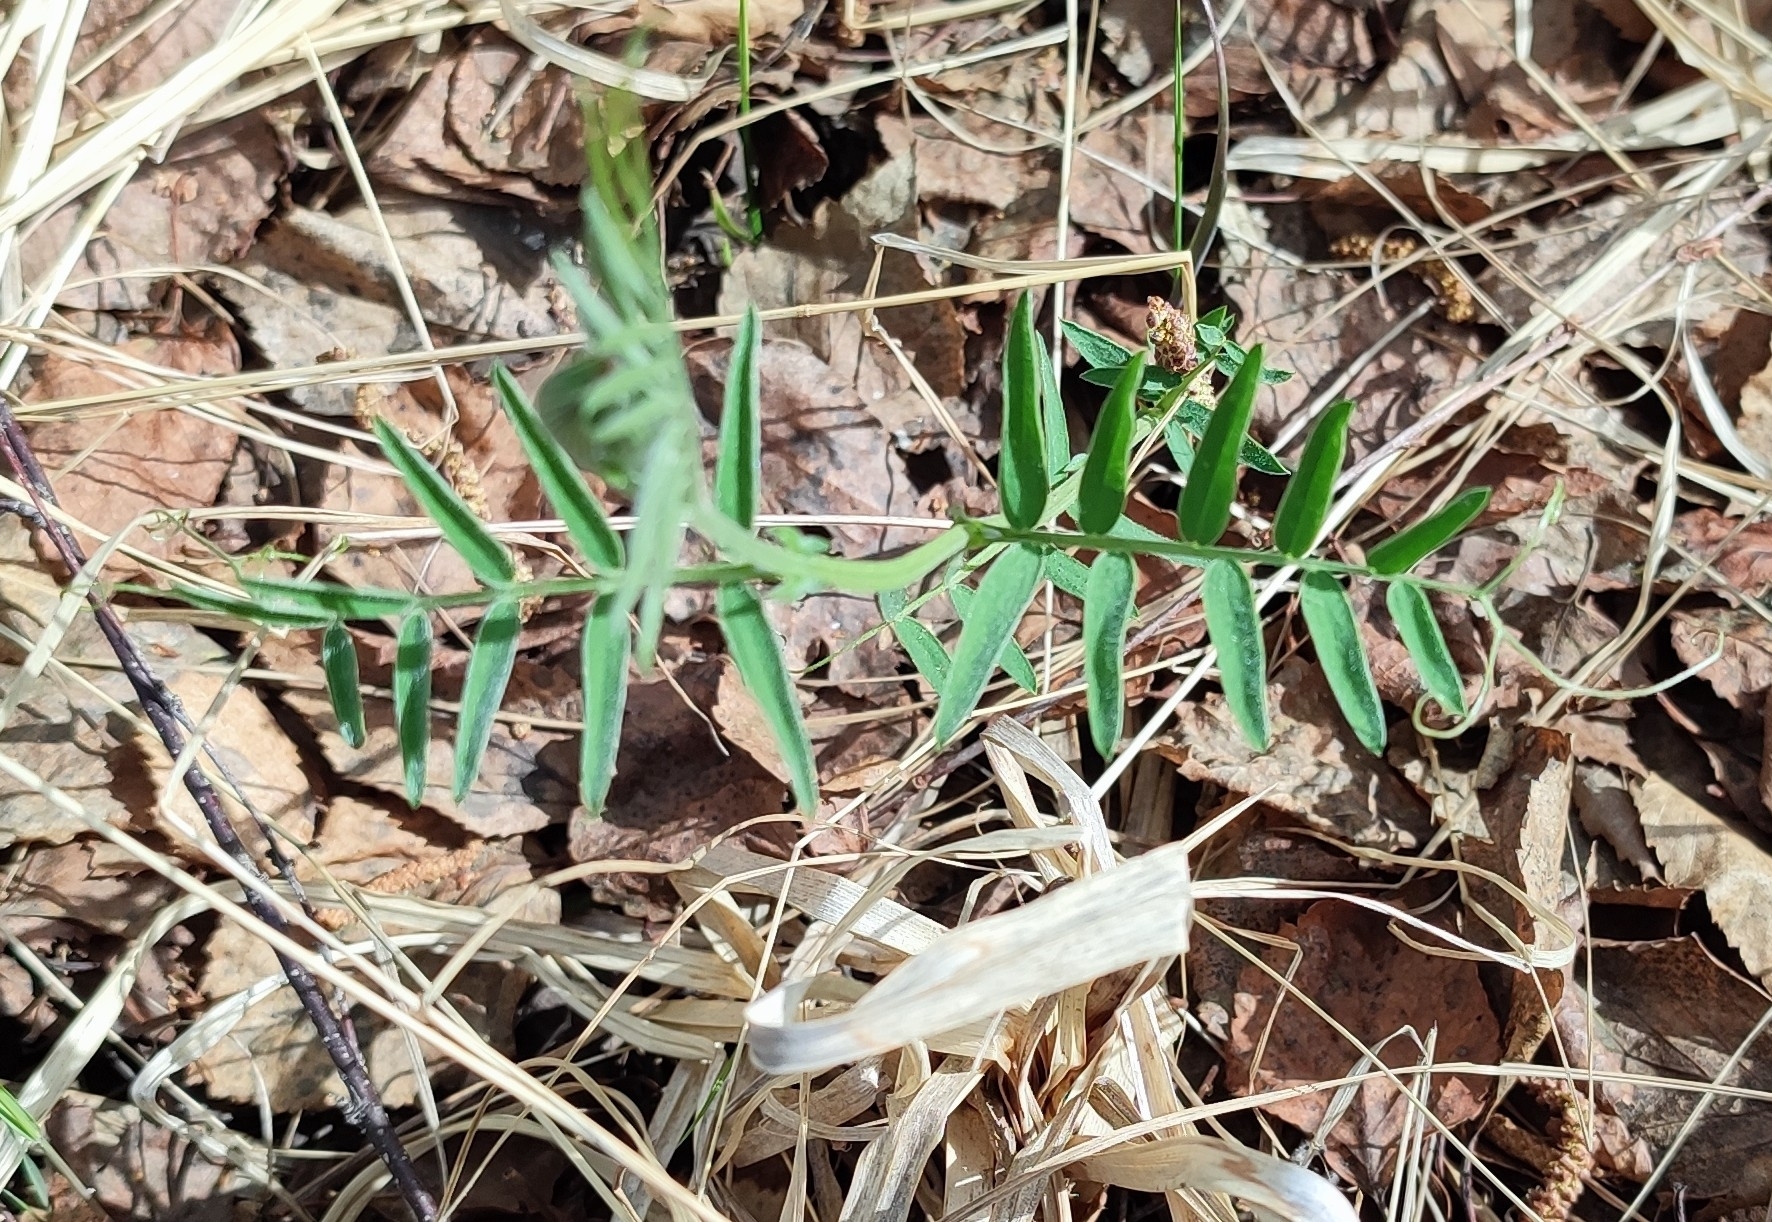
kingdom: Plantae
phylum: Tracheophyta
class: Magnoliopsida
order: Fabales
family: Fabaceae
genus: Vicia
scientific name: Vicia cracca
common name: Bird vetch
